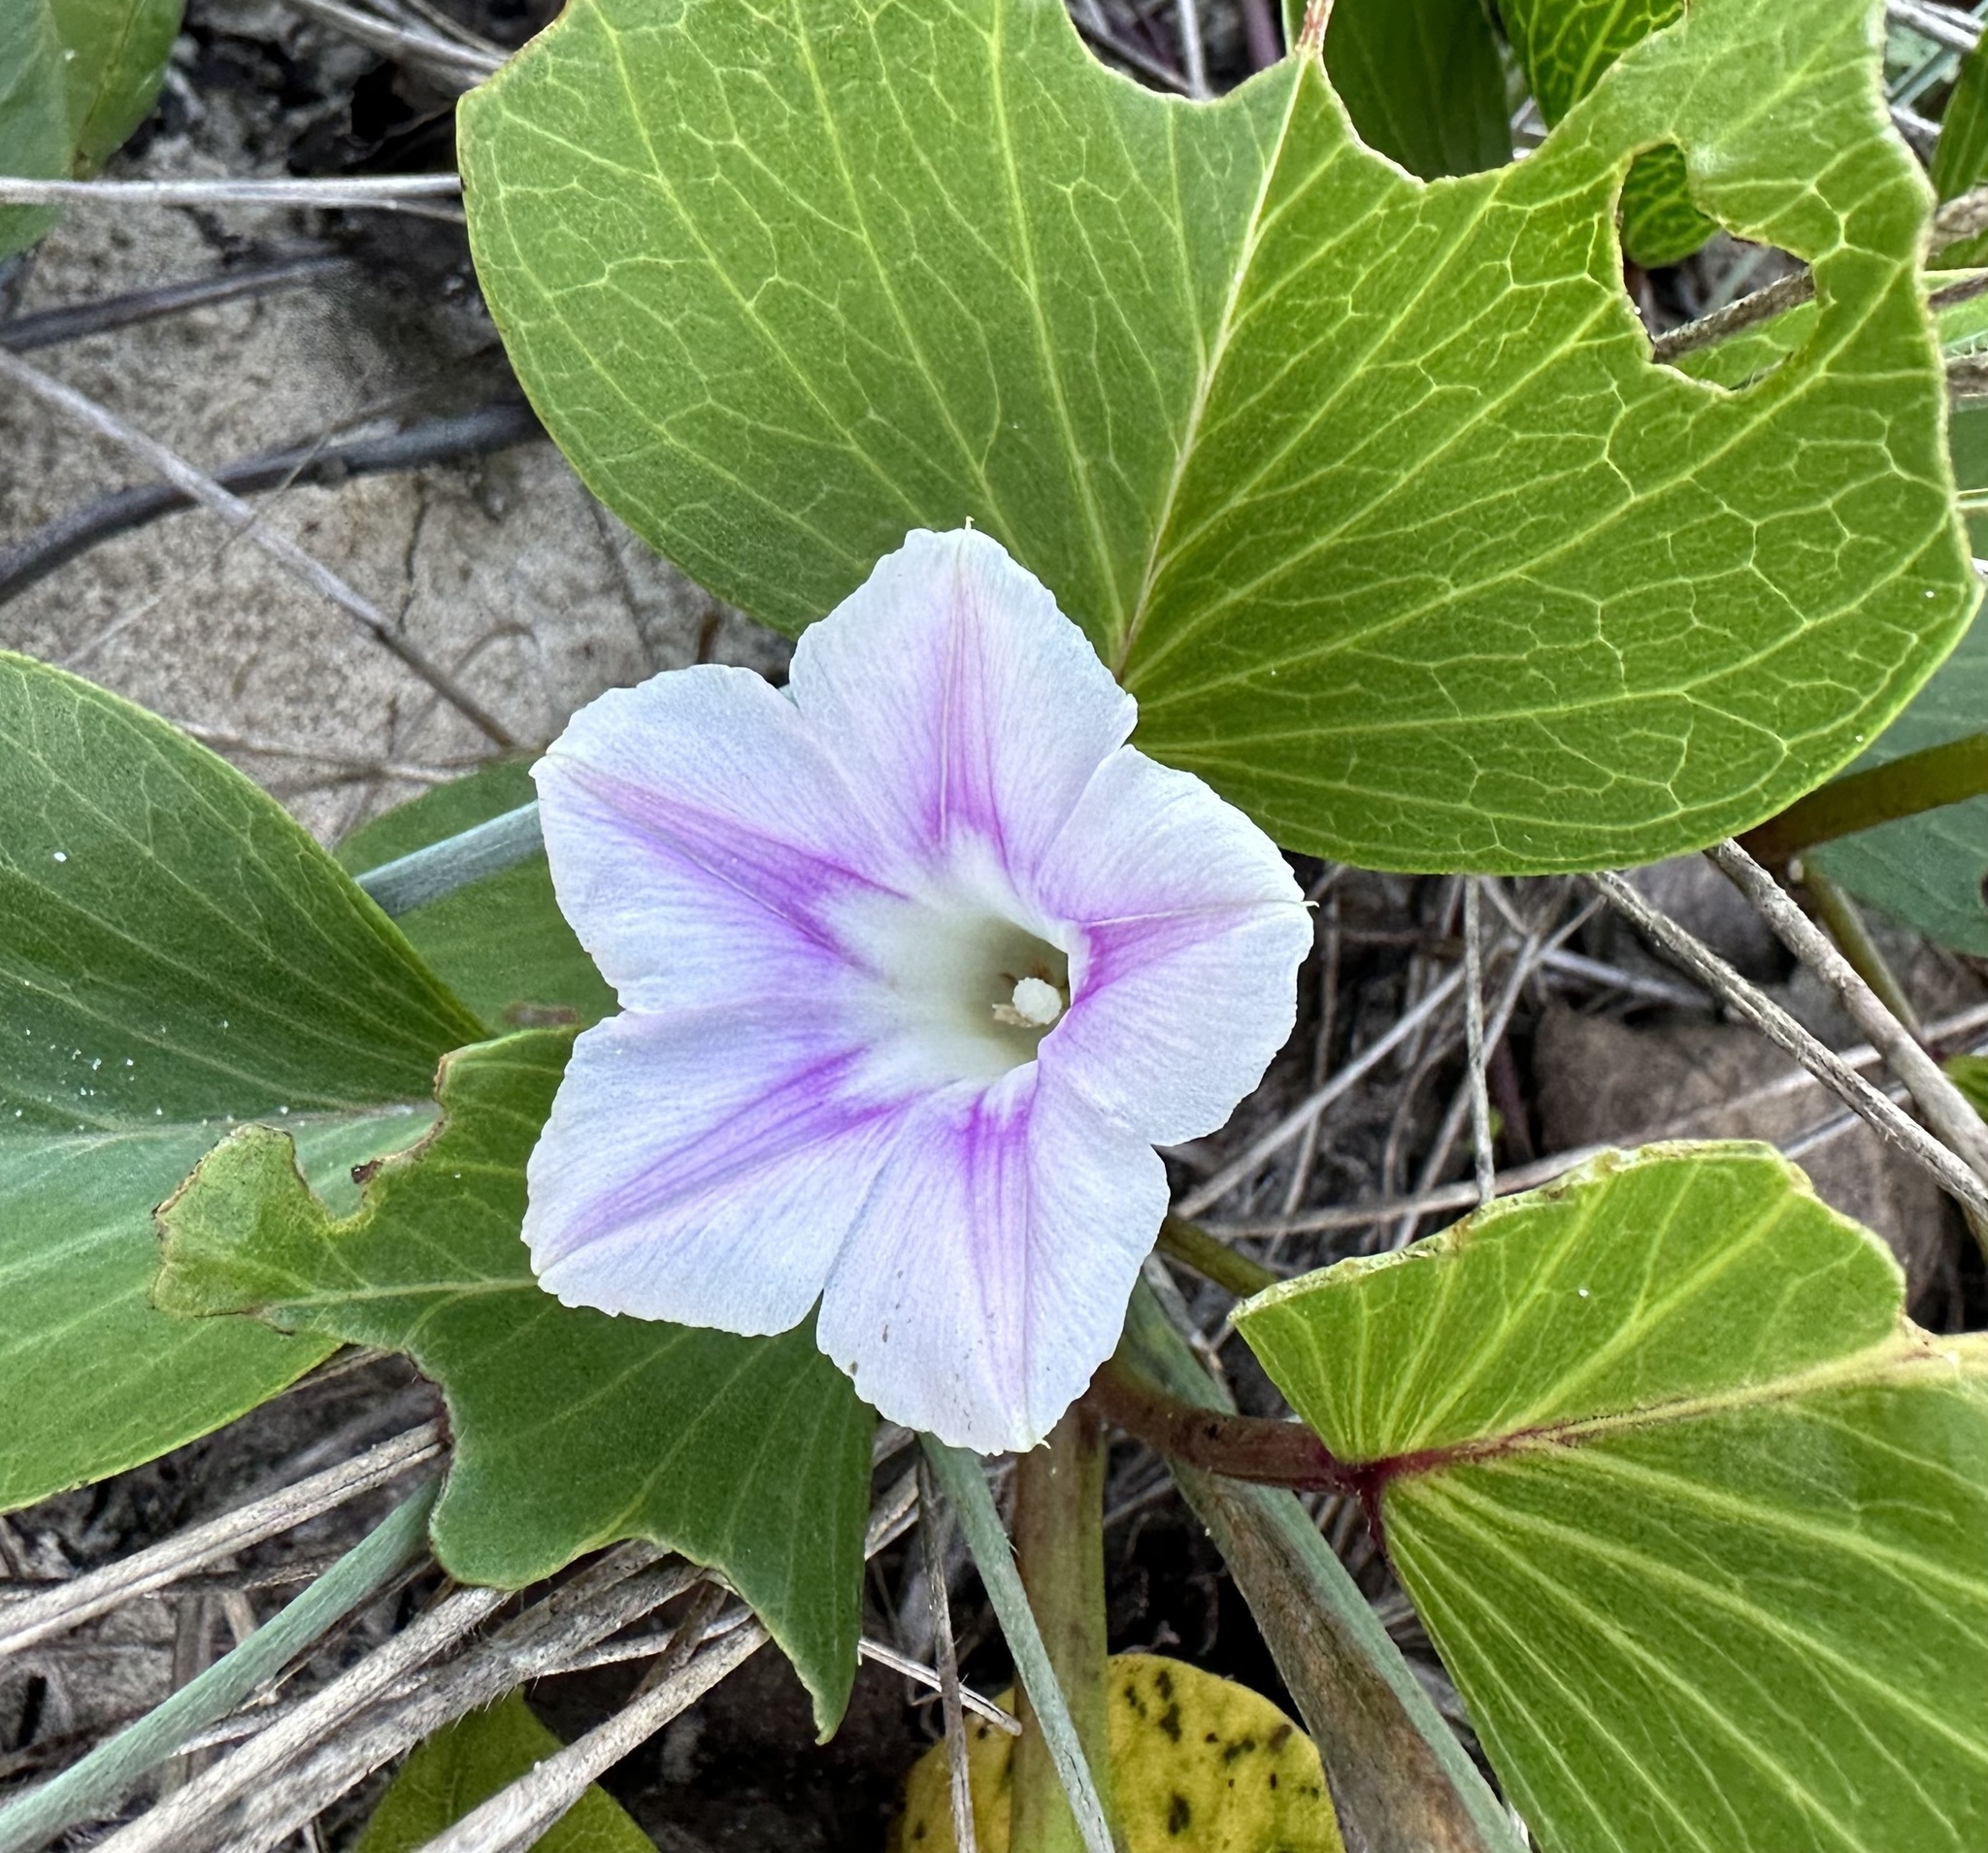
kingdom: Plantae
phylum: Tracheophyta
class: Magnoliopsida
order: Solanales
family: Convolvulaceae
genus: Ipomoea
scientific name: Ipomoea pes-caprae
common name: Beach morning glory
